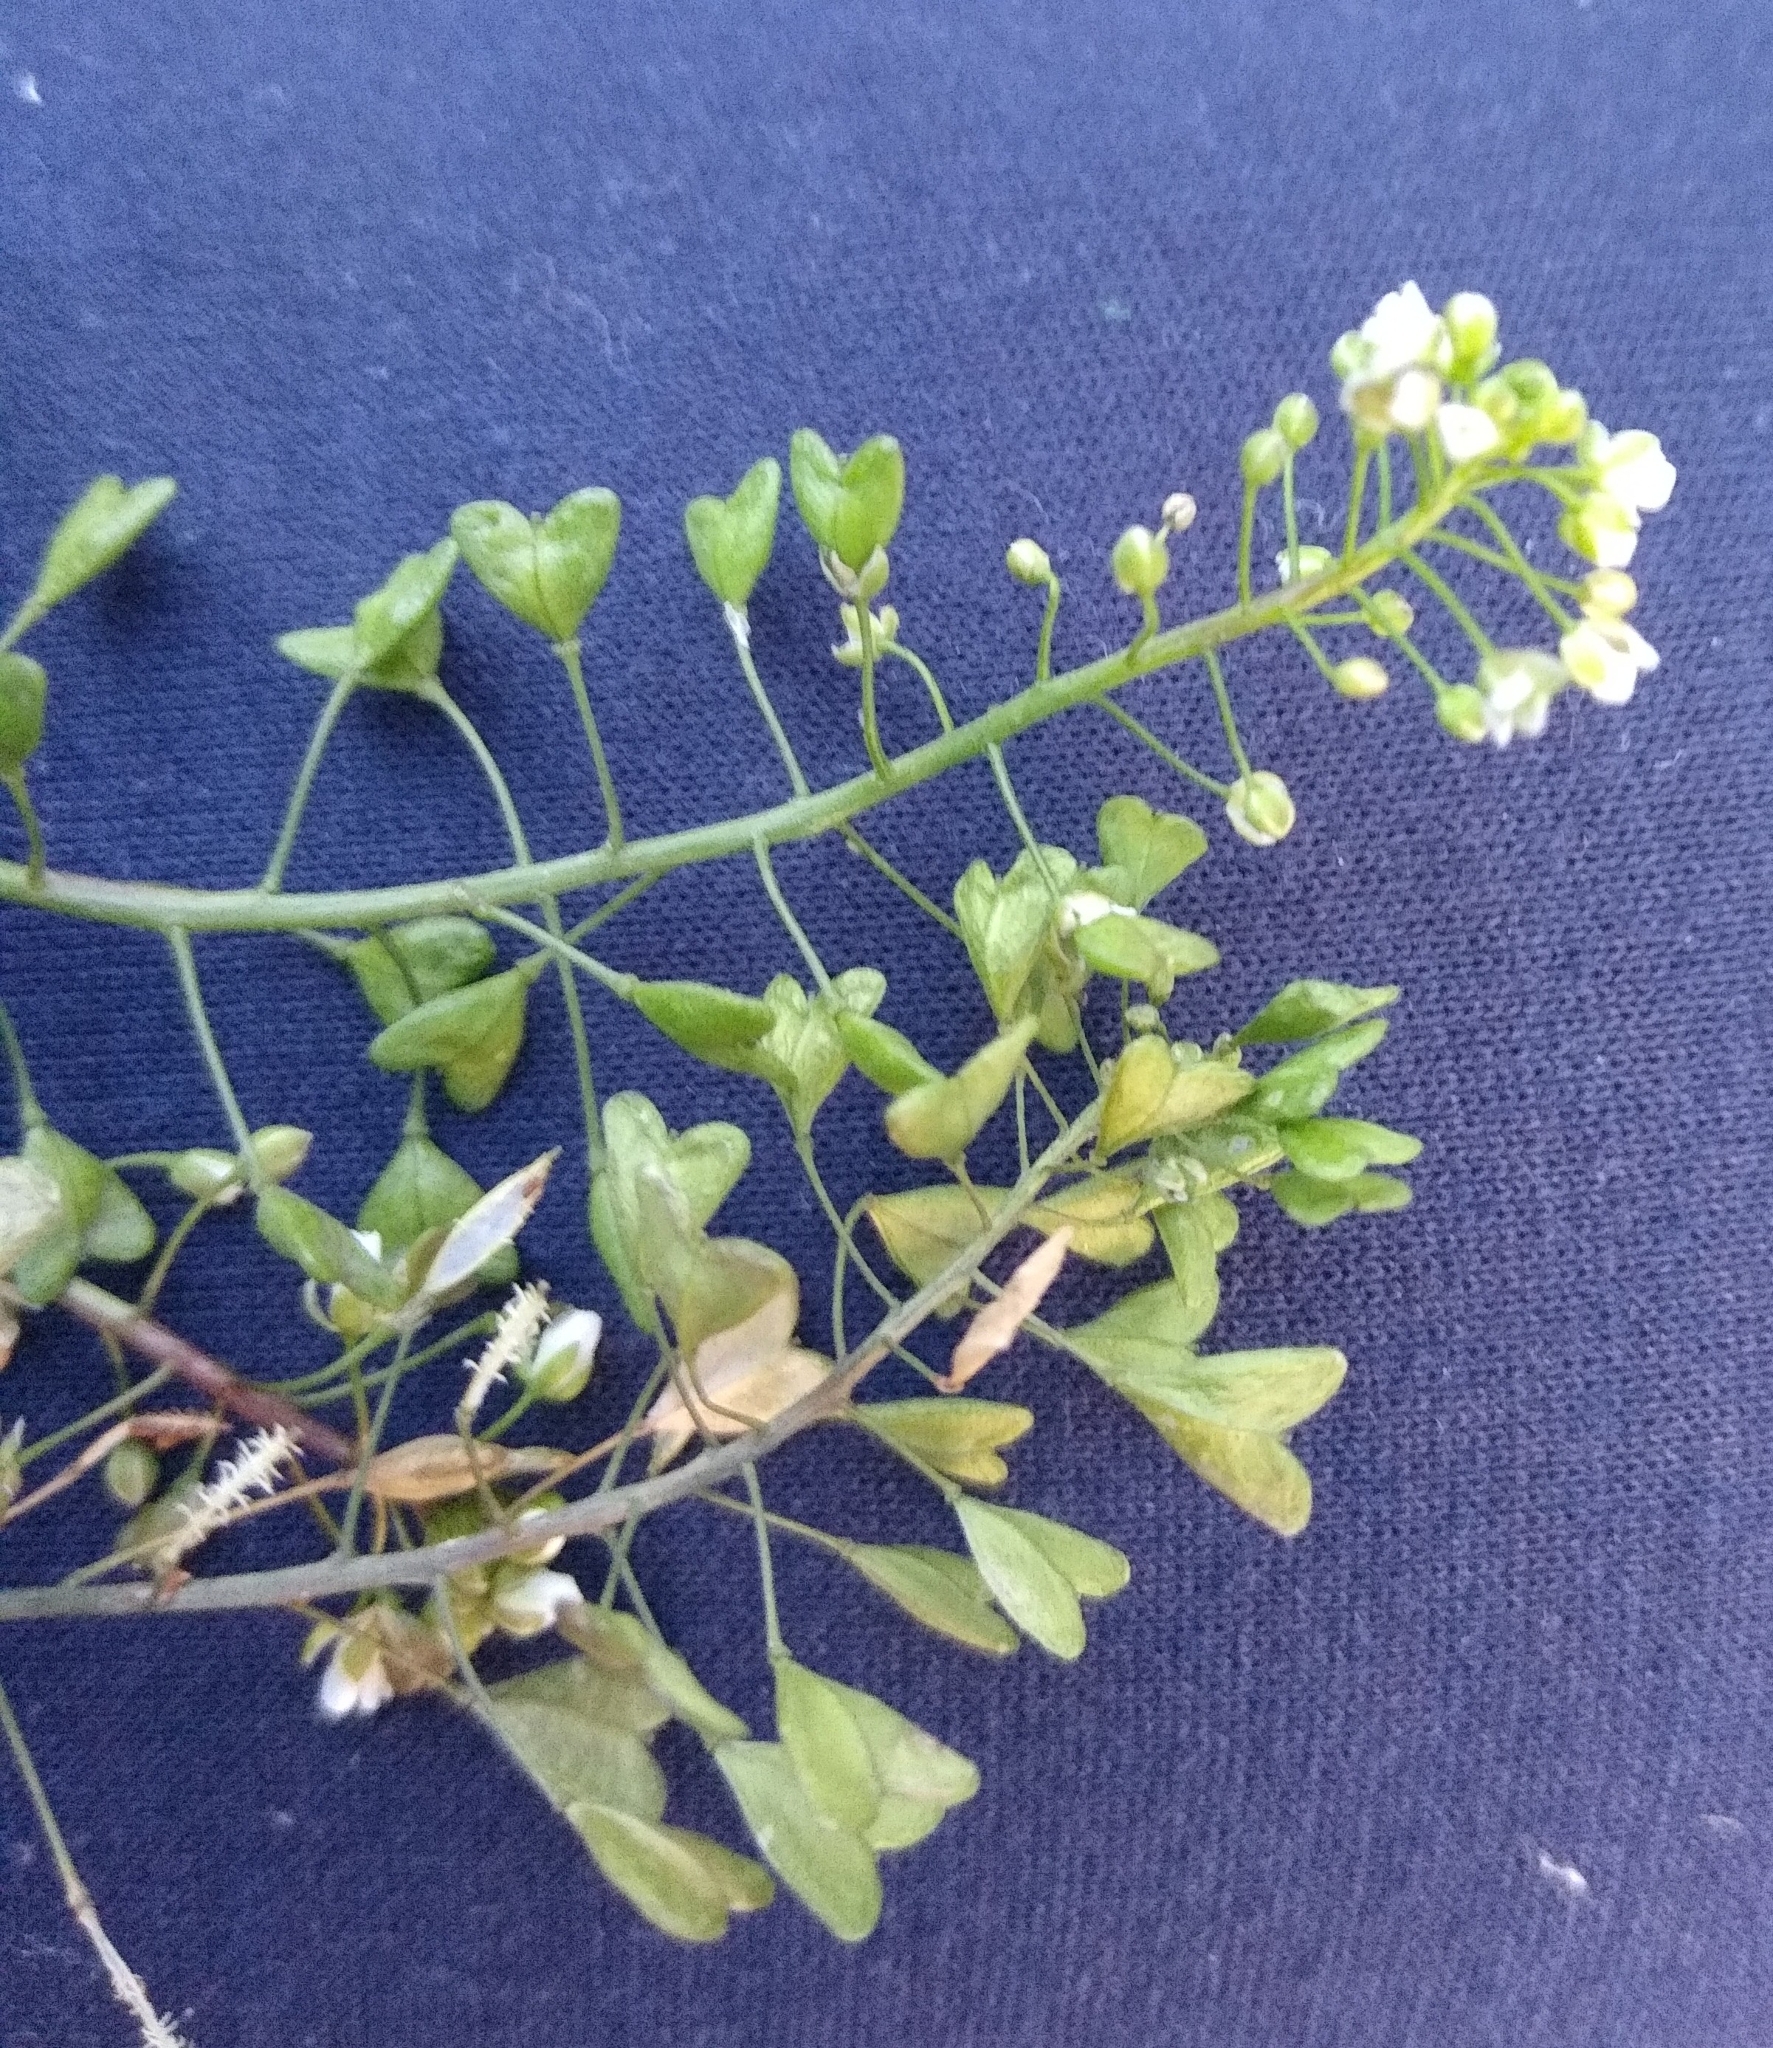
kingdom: Plantae
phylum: Tracheophyta
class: Magnoliopsida
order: Brassicales
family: Brassicaceae
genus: Capsella
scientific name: Capsella bursa-pastoris
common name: Shepherd's purse
